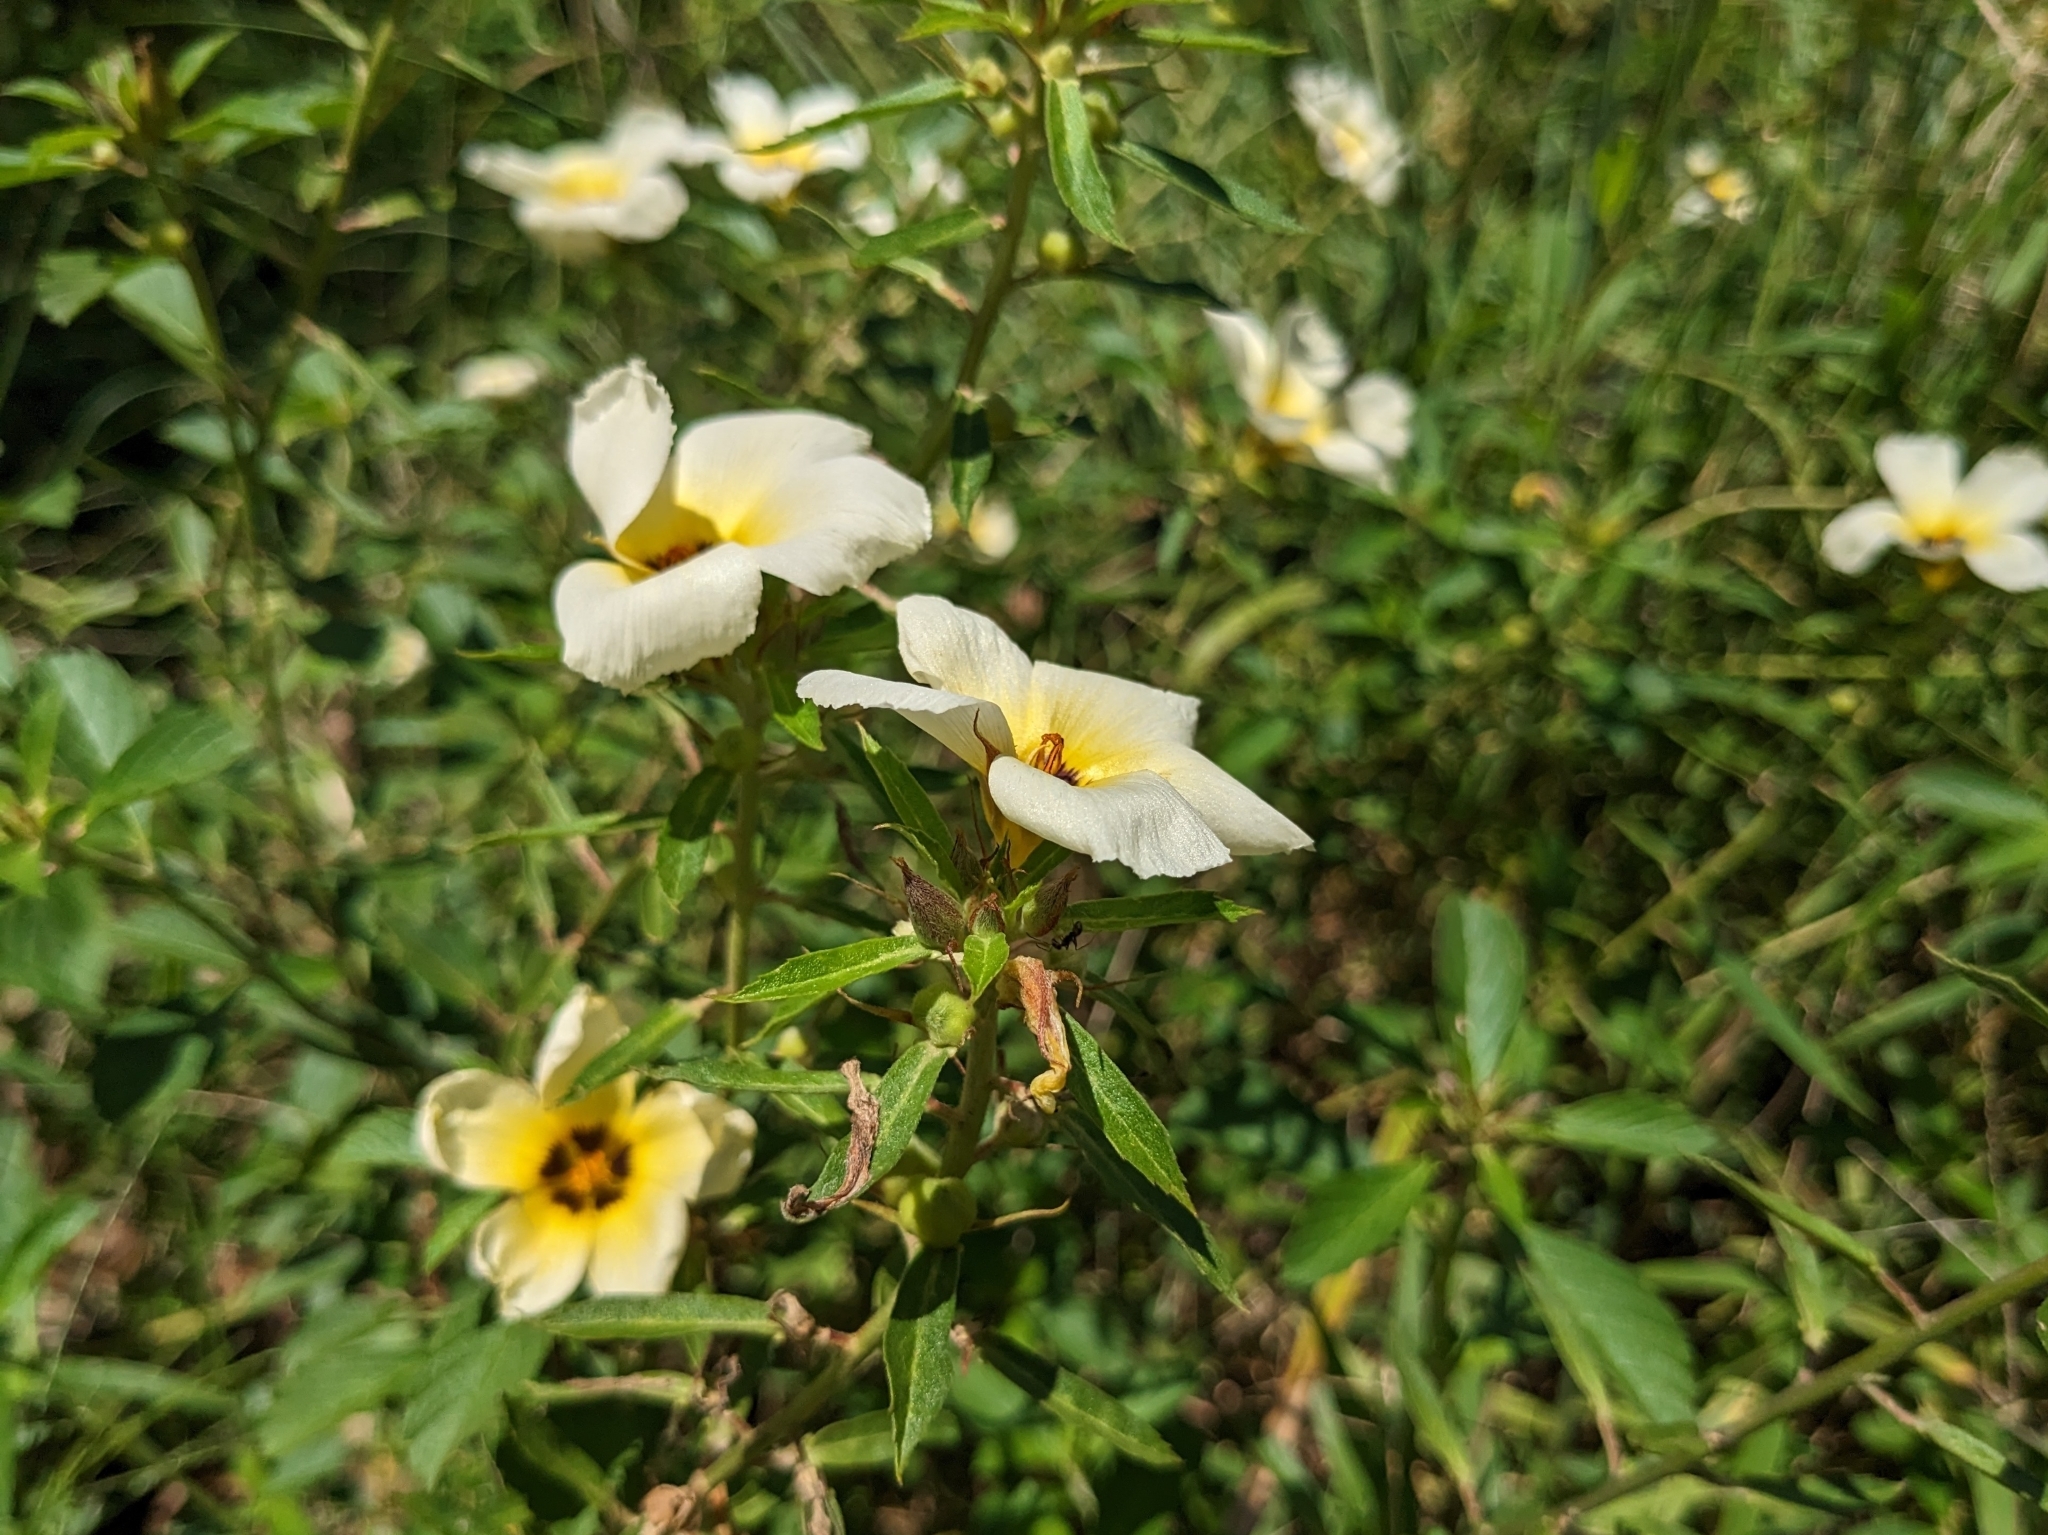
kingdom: Plantae
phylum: Tracheophyta
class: Magnoliopsida
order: Malpighiales
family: Turneraceae
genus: Turnera
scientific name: Turnera subulata
